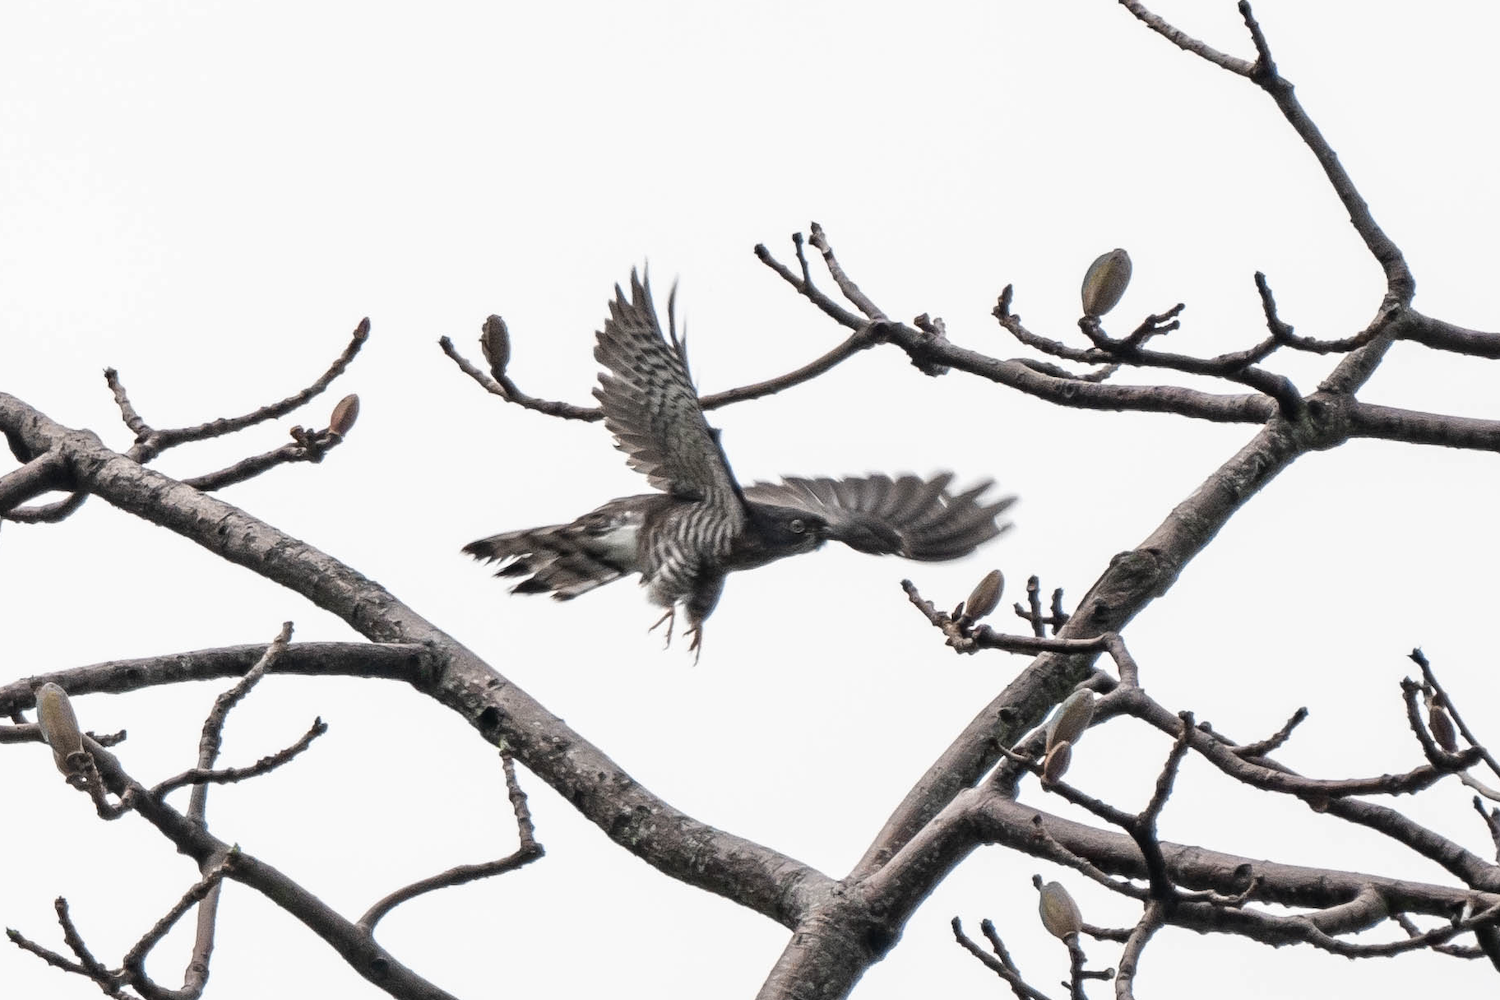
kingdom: Animalia
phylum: Chordata
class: Aves
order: Cuculiformes
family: Cuculidae
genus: Cuculus
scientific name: Cuculus sparverioides
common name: Large hawk cuckoo
